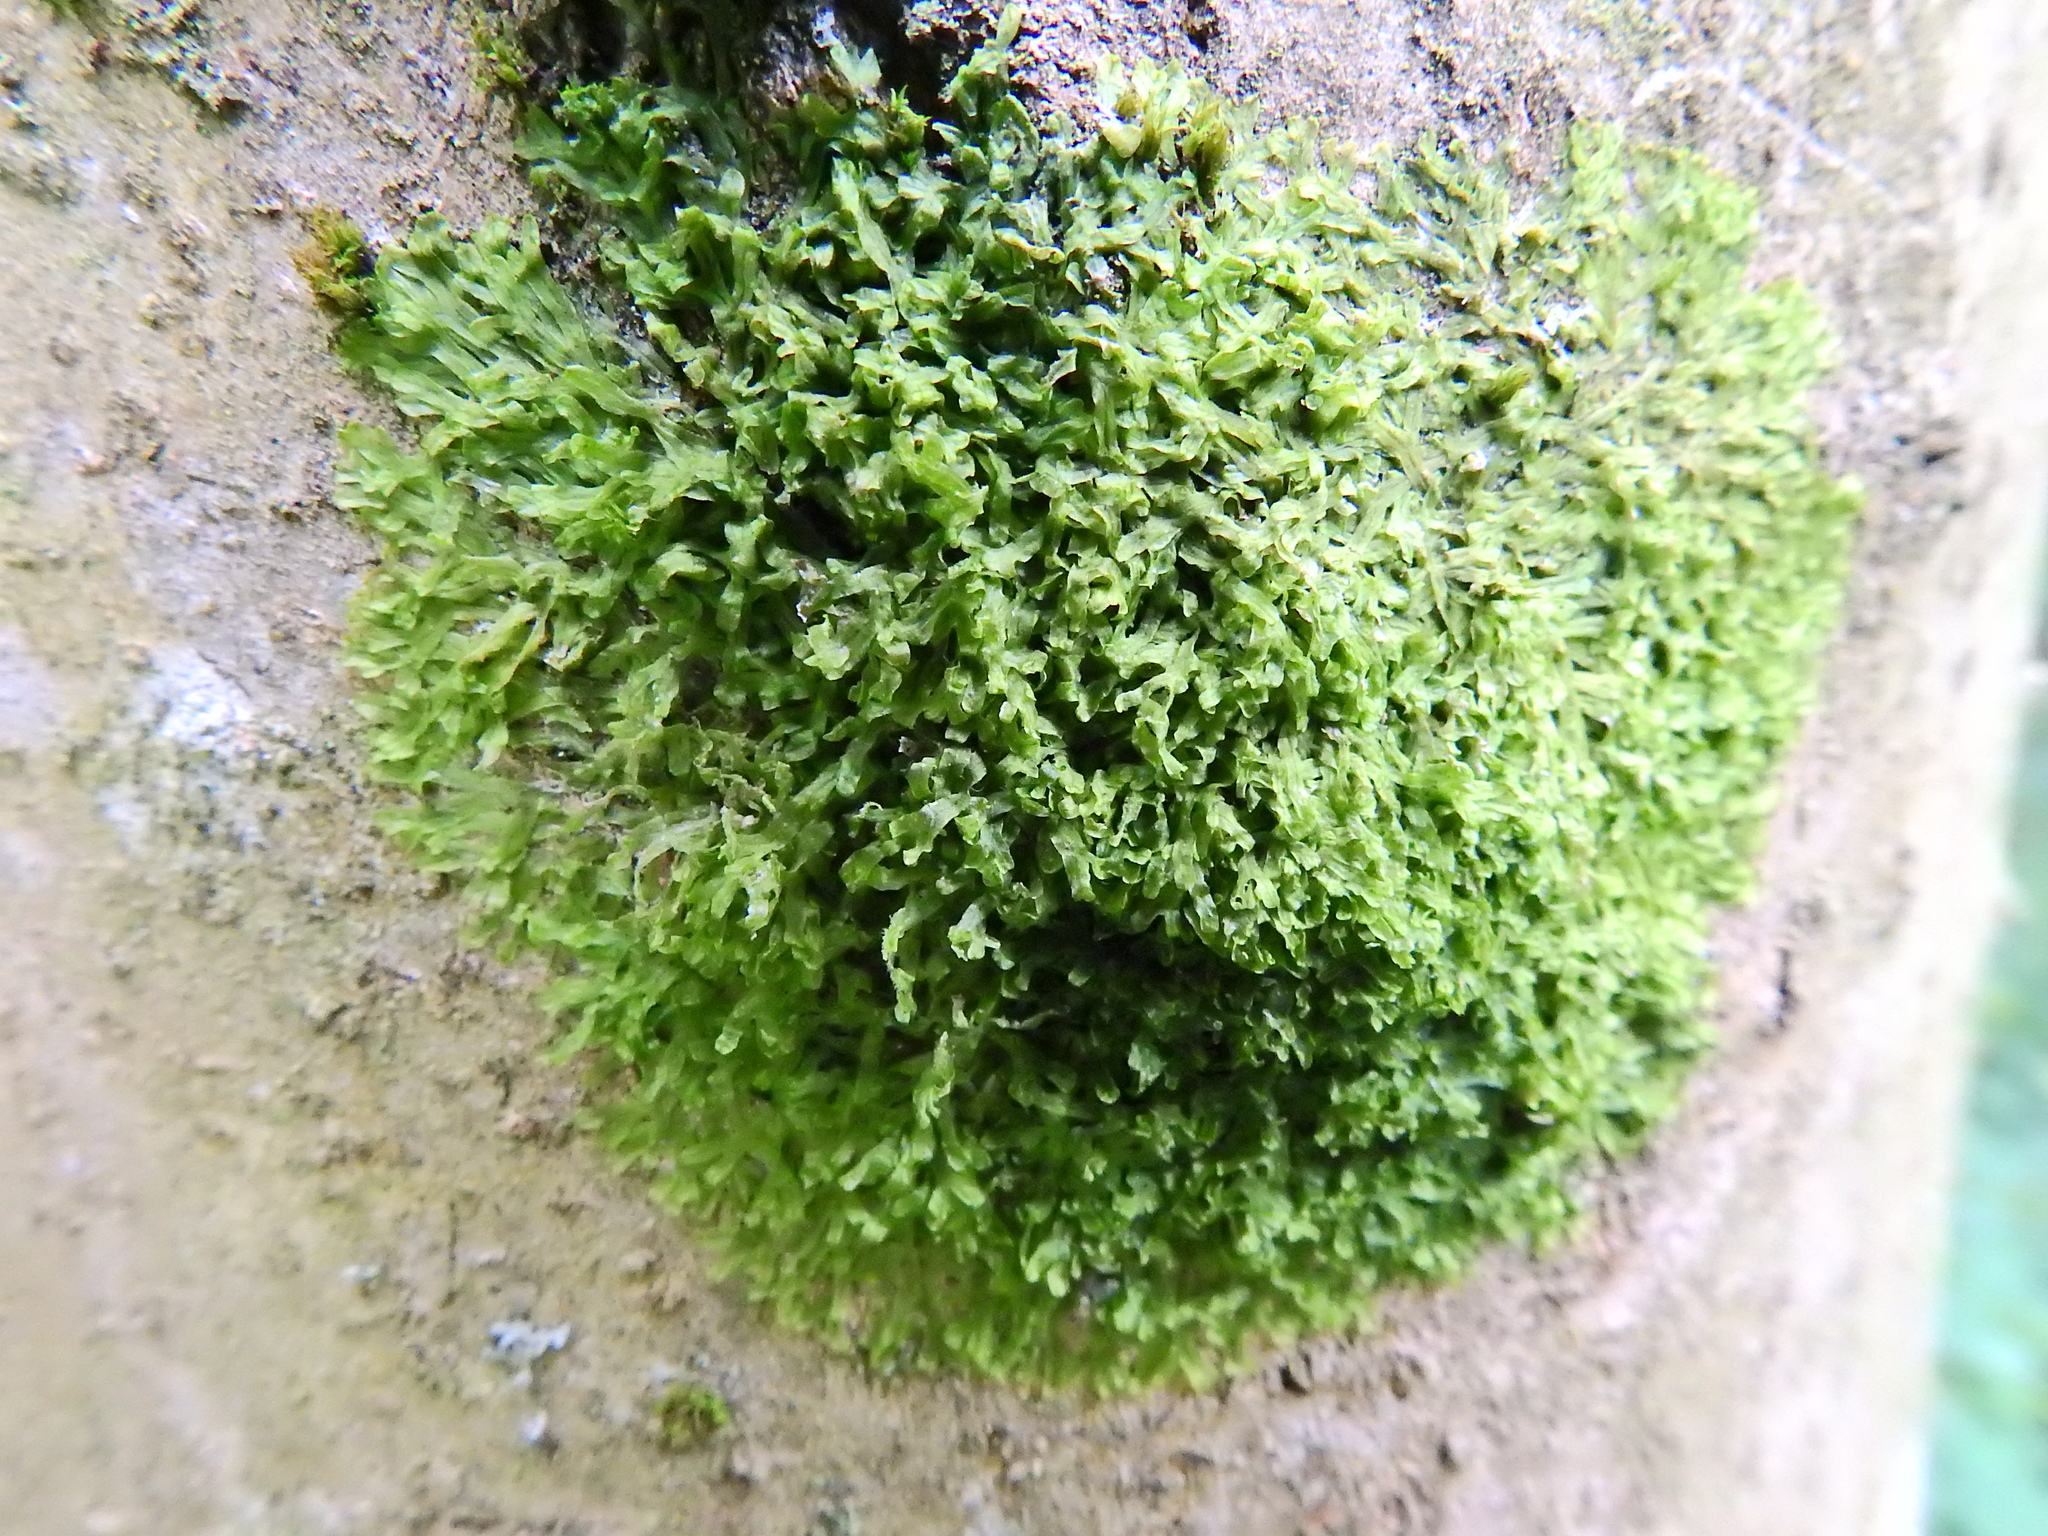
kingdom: Plantae
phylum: Marchantiophyta
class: Jungermanniopsida
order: Metzgeriales
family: Metzgeriaceae
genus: Metzgeria
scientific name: Metzgeria furcata
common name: Forked veilwort
